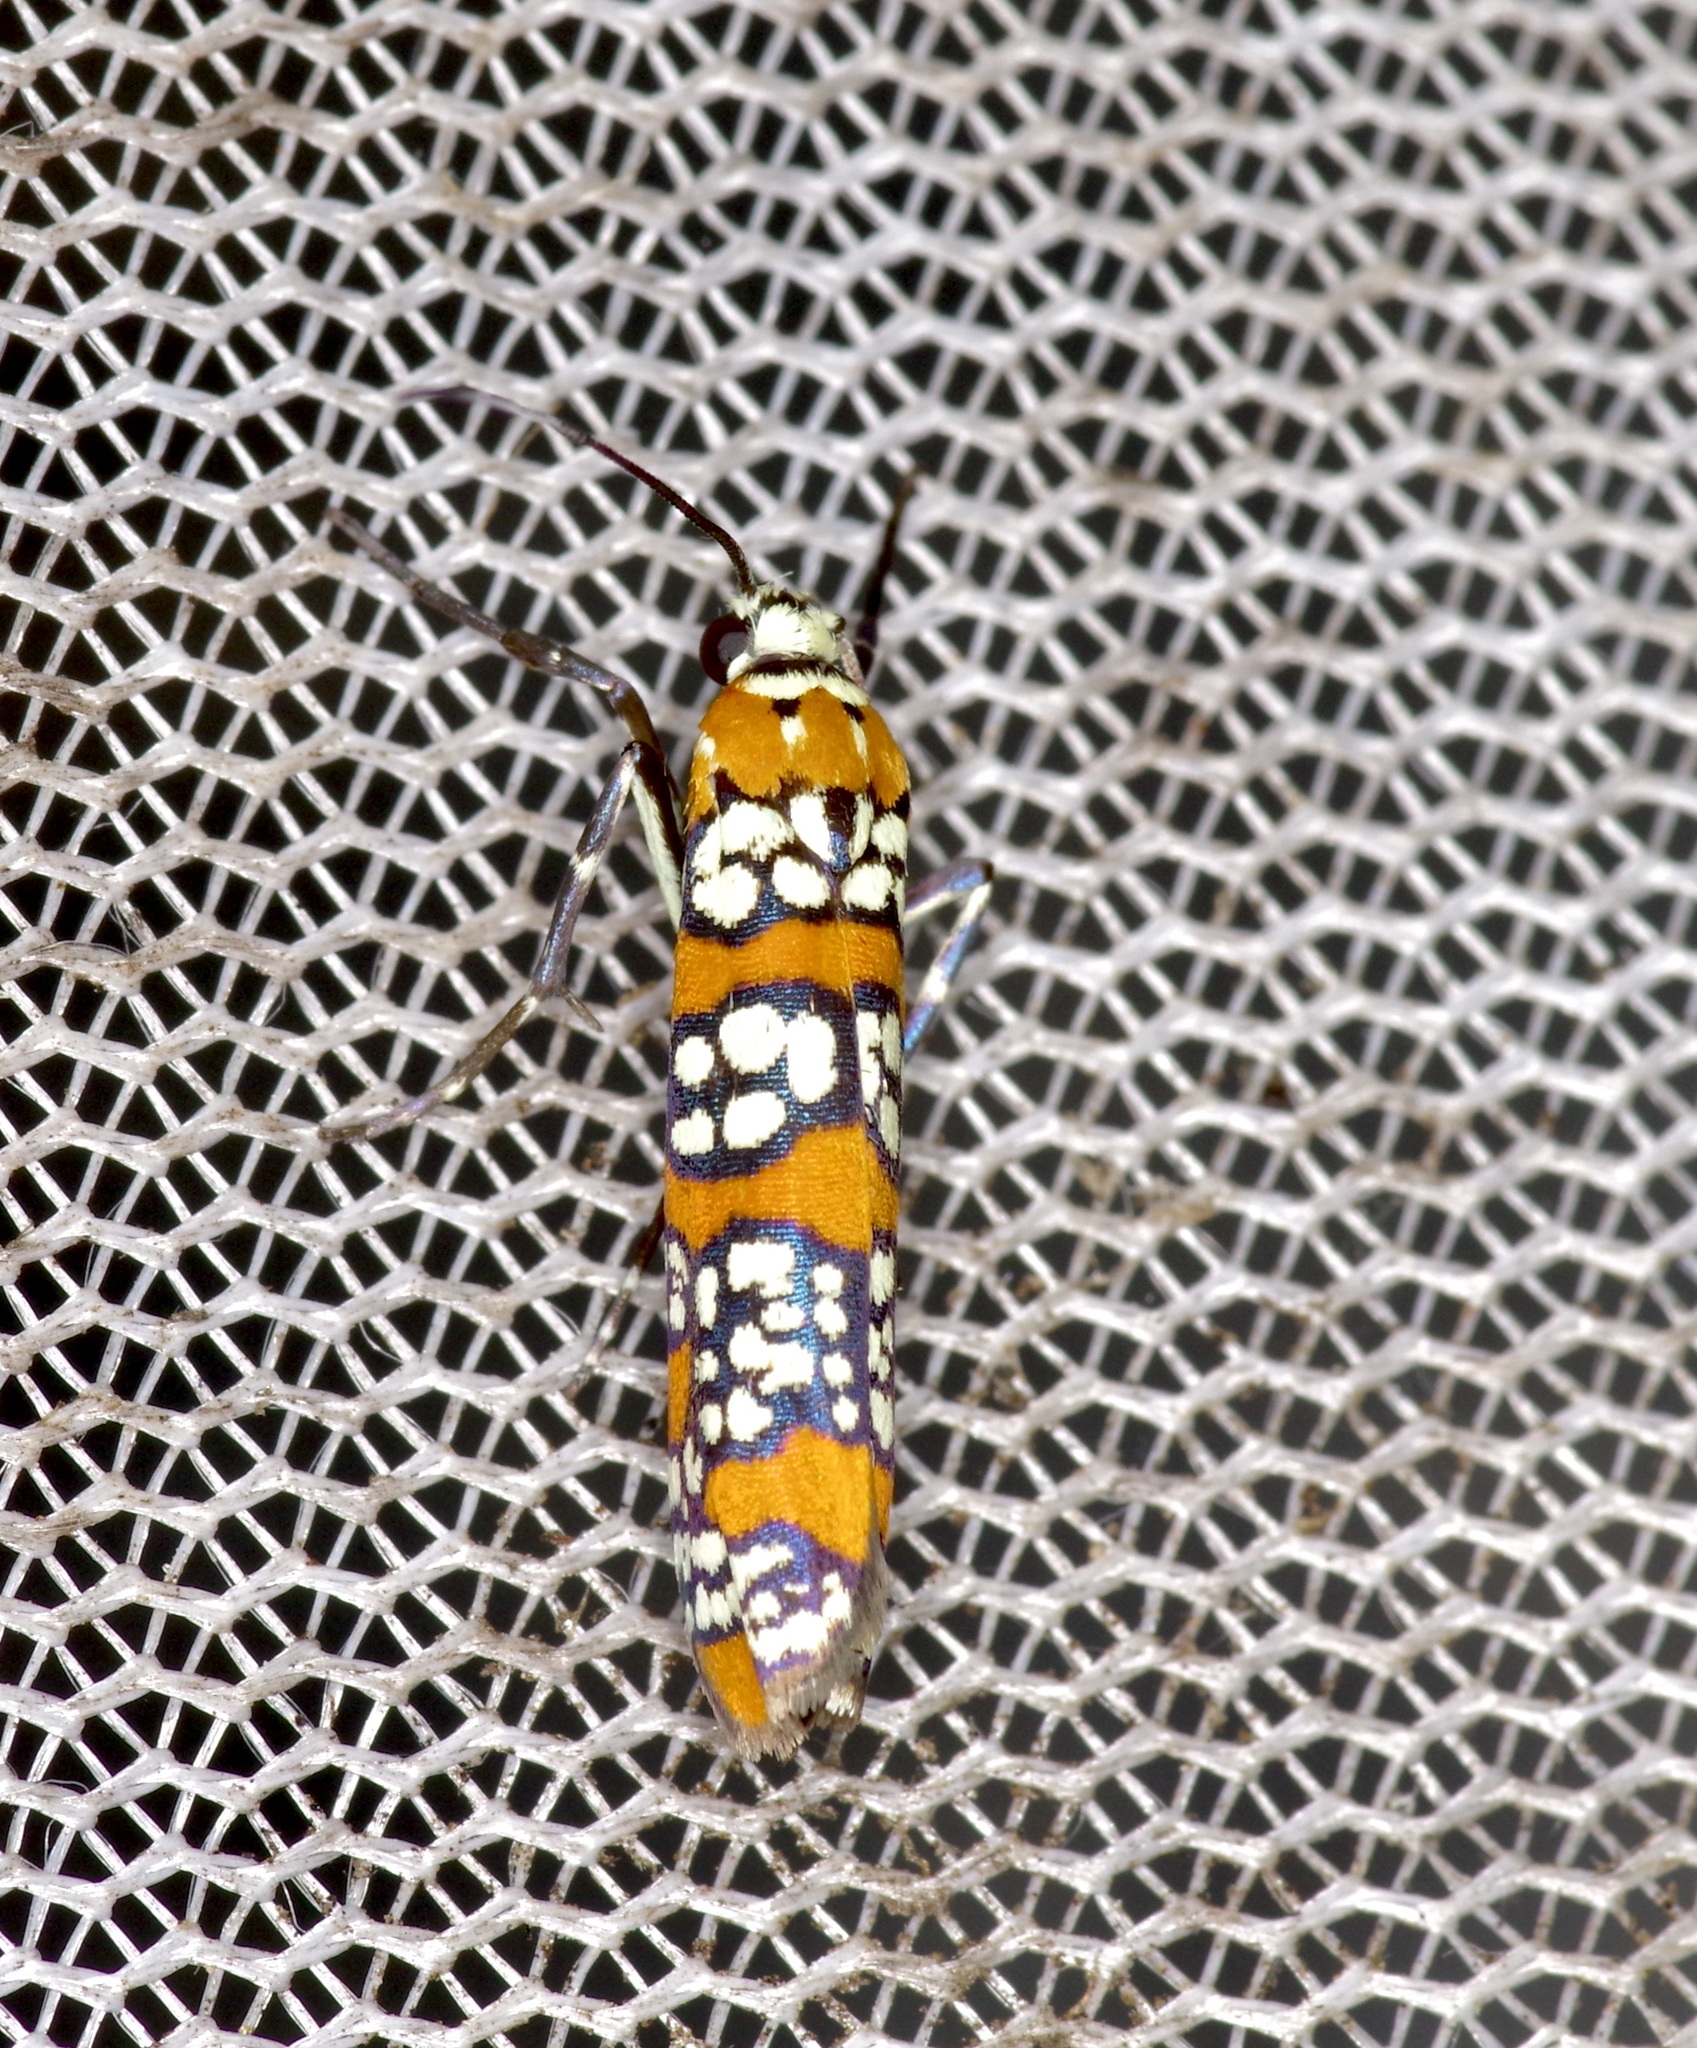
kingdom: Animalia
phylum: Arthropoda
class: Insecta
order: Lepidoptera
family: Attevidae
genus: Atteva
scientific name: Atteva punctella
